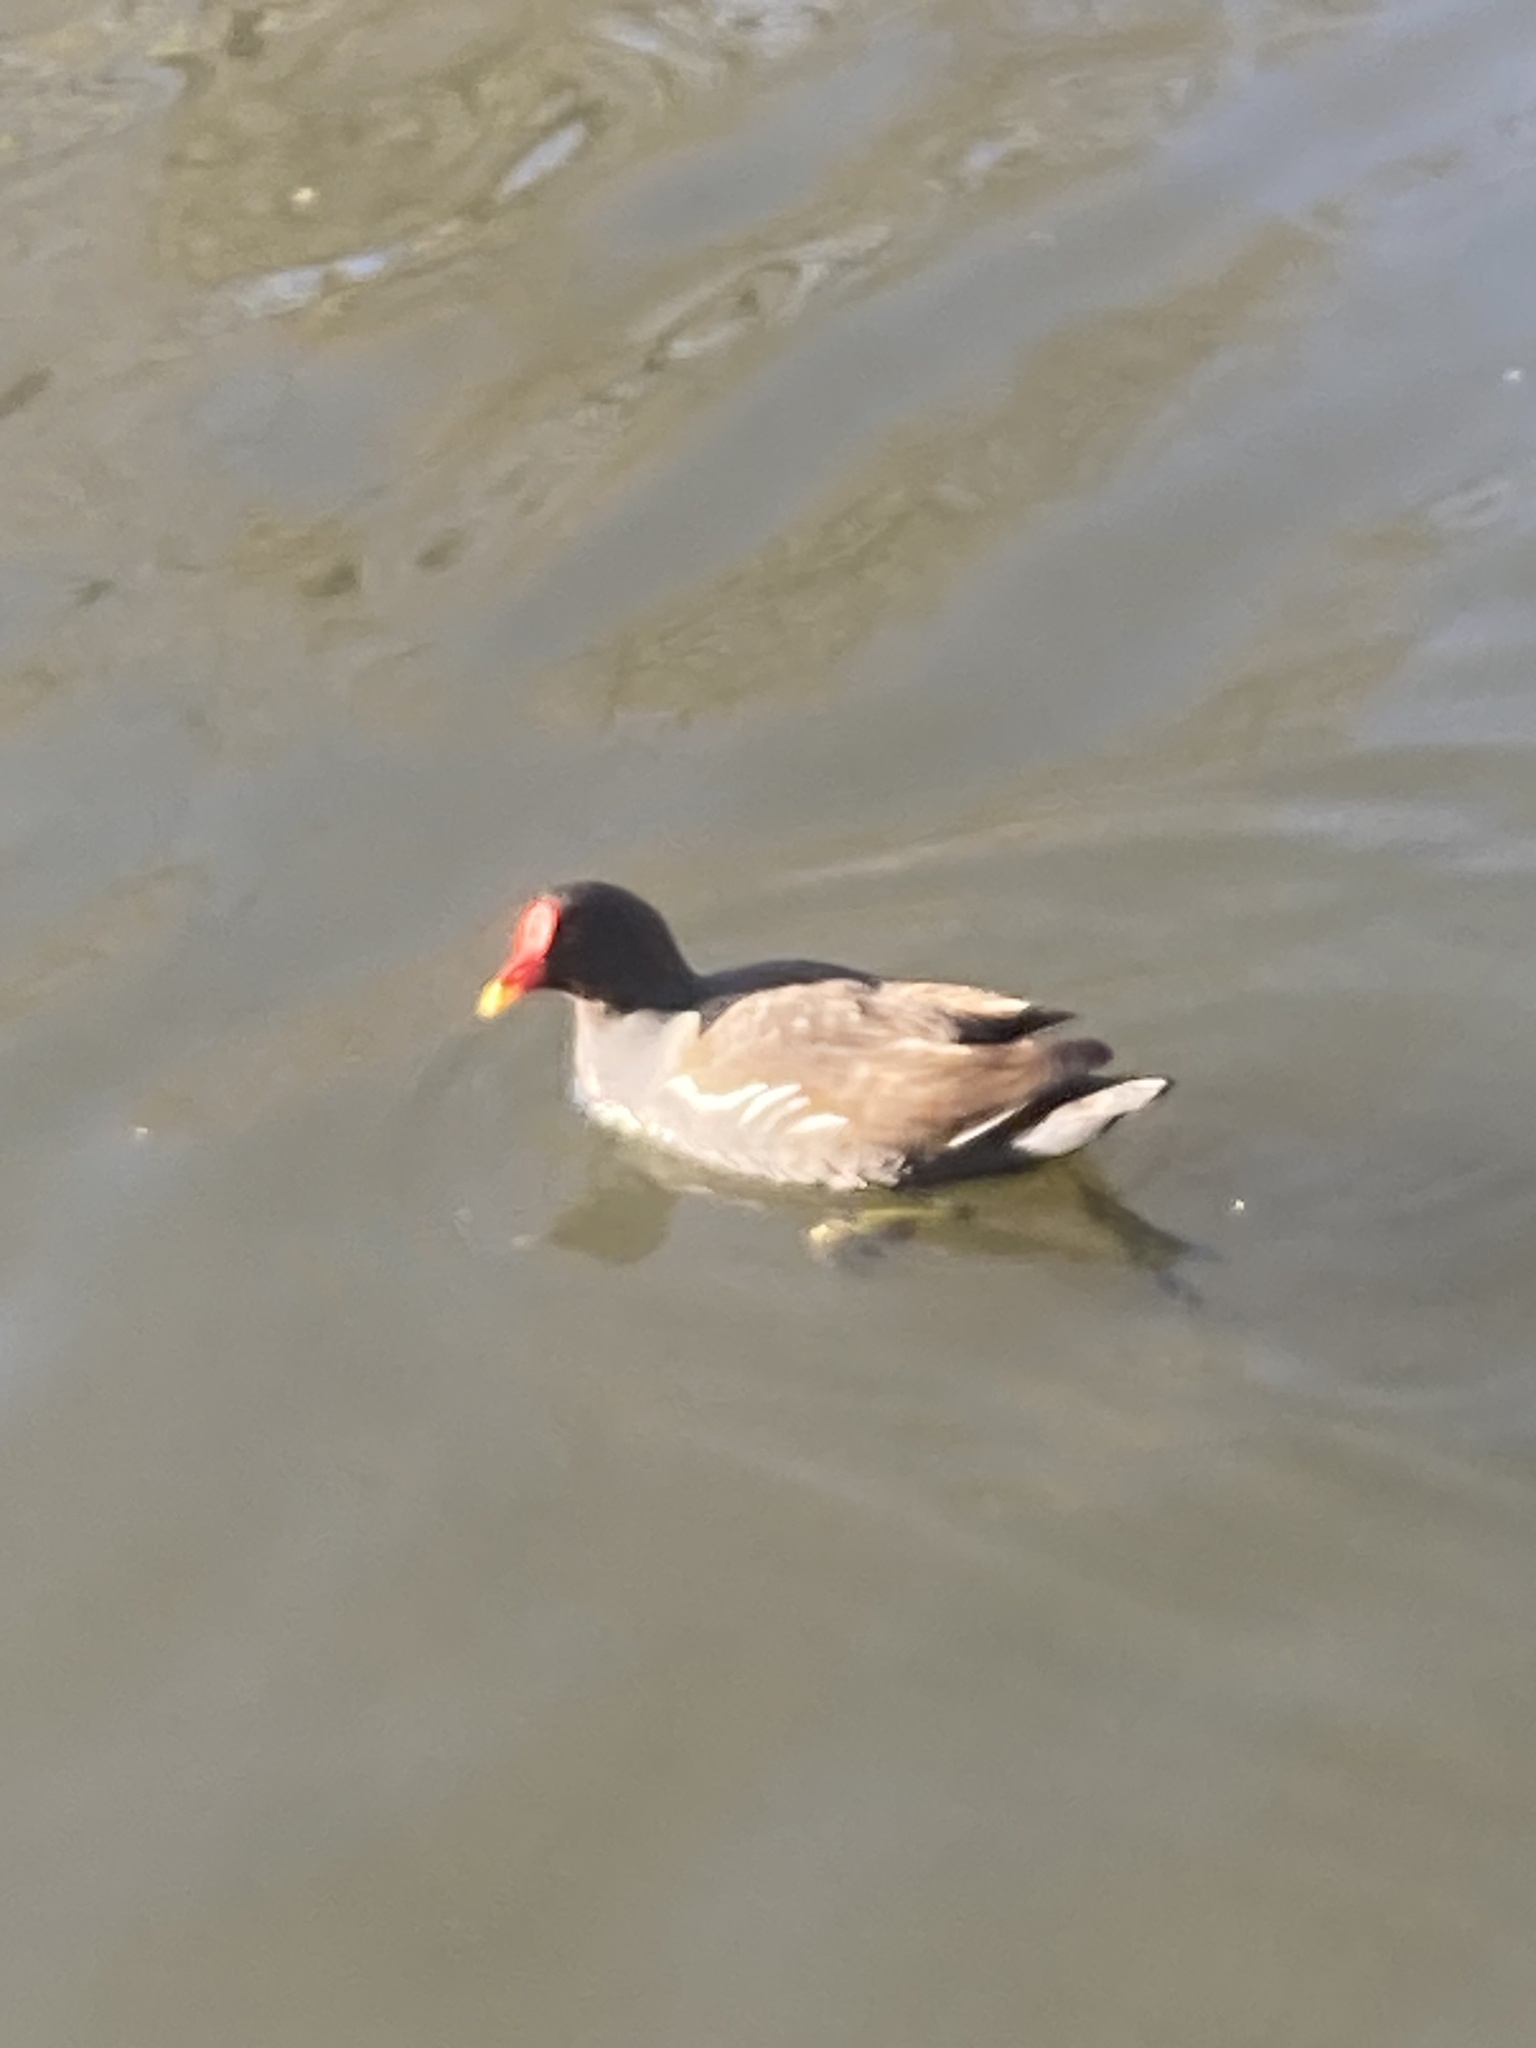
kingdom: Animalia
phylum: Chordata
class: Aves
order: Gruiformes
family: Rallidae
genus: Gallinula
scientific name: Gallinula chloropus
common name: Common moorhen
